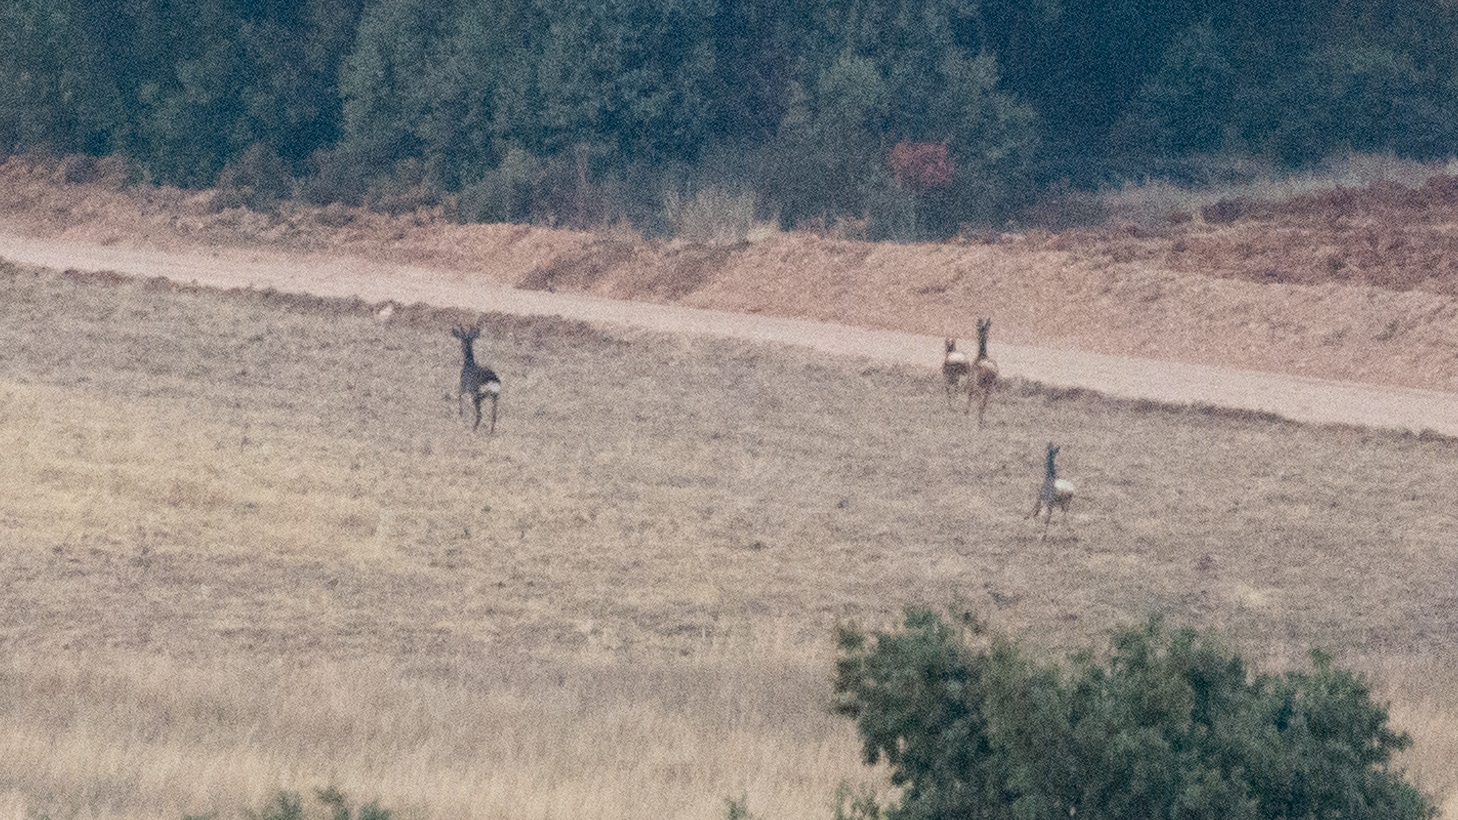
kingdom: Animalia
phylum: Chordata
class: Mammalia
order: Artiodactyla
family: Cervidae
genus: Capreolus
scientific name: Capreolus capreolus
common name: Western roe deer
